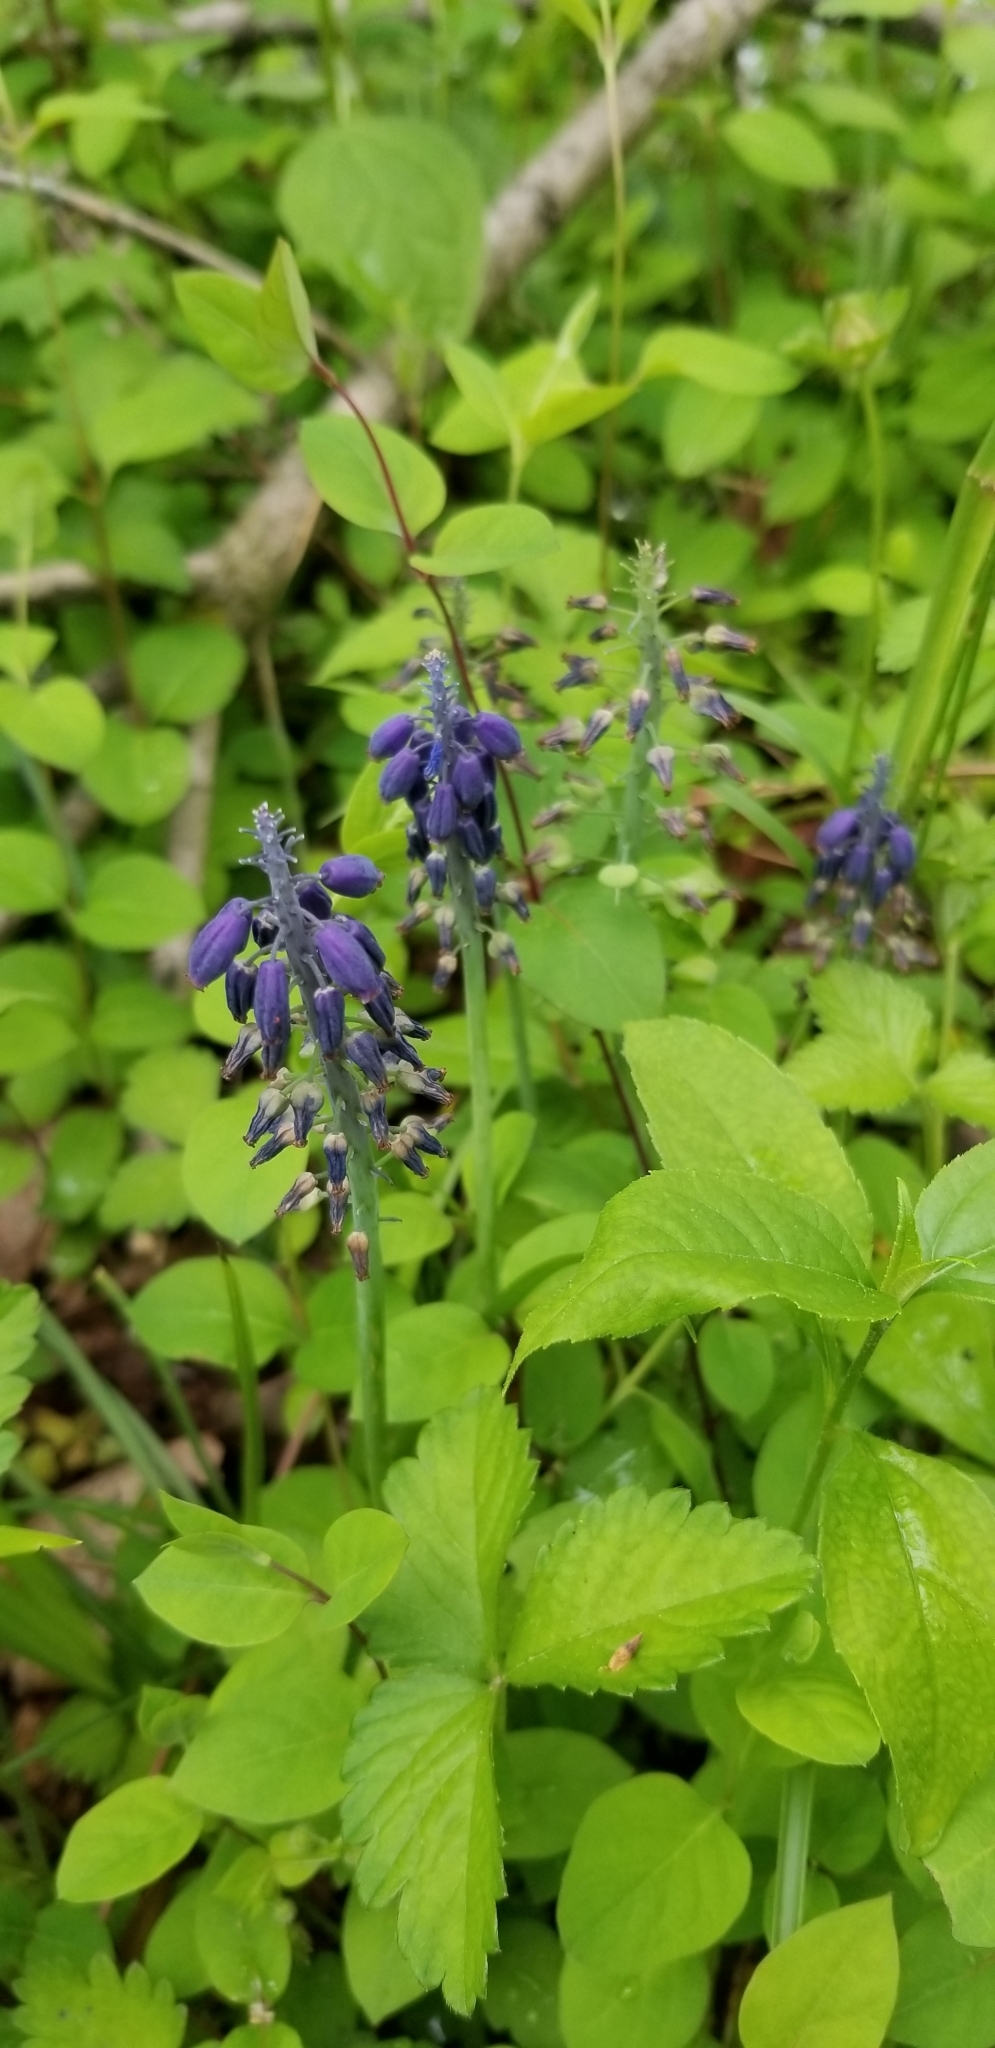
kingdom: Plantae
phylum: Tracheophyta
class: Liliopsida
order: Asparagales
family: Asparagaceae
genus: Muscari
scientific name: Muscari neglectum
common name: Grape-hyacinth
